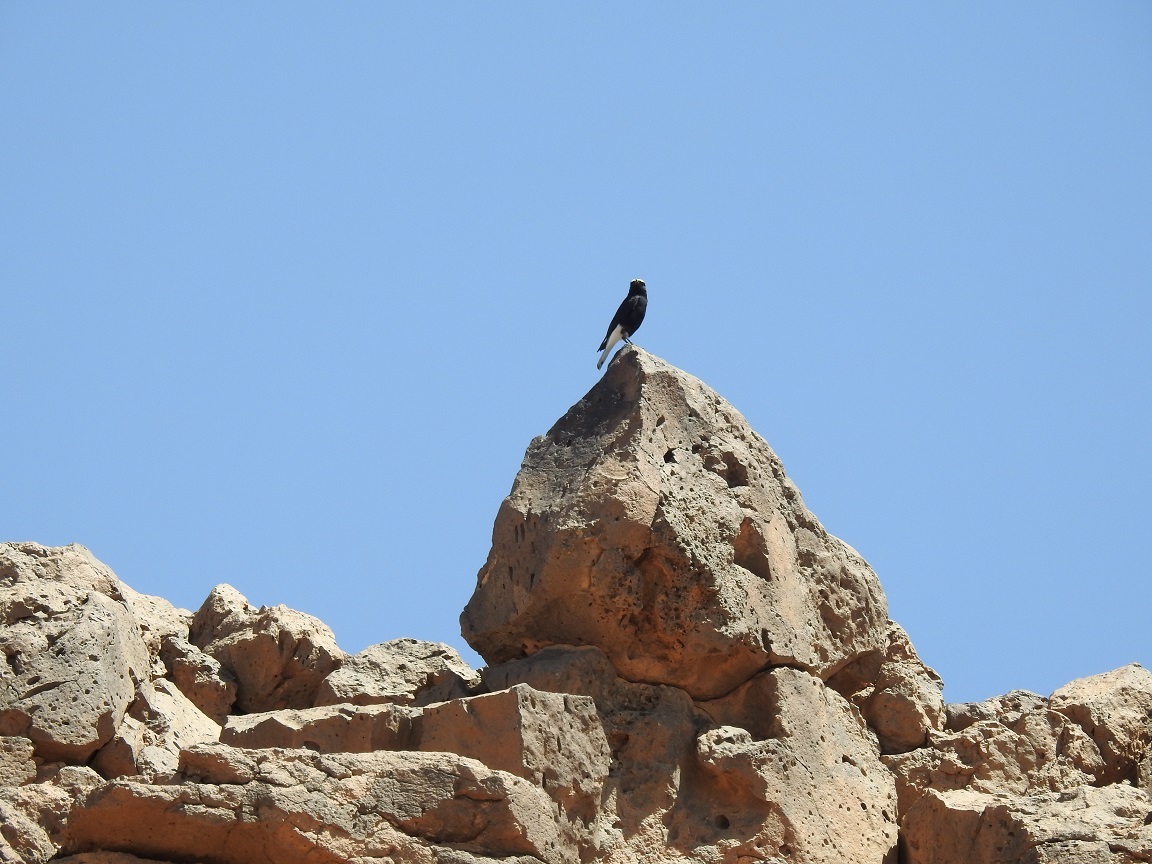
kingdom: Animalia
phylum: Chordata
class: Aves
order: Passeriformes
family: Muscicapidae
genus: Oenanthe
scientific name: Oenanthe leucopyga
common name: White-crowned wheatear
